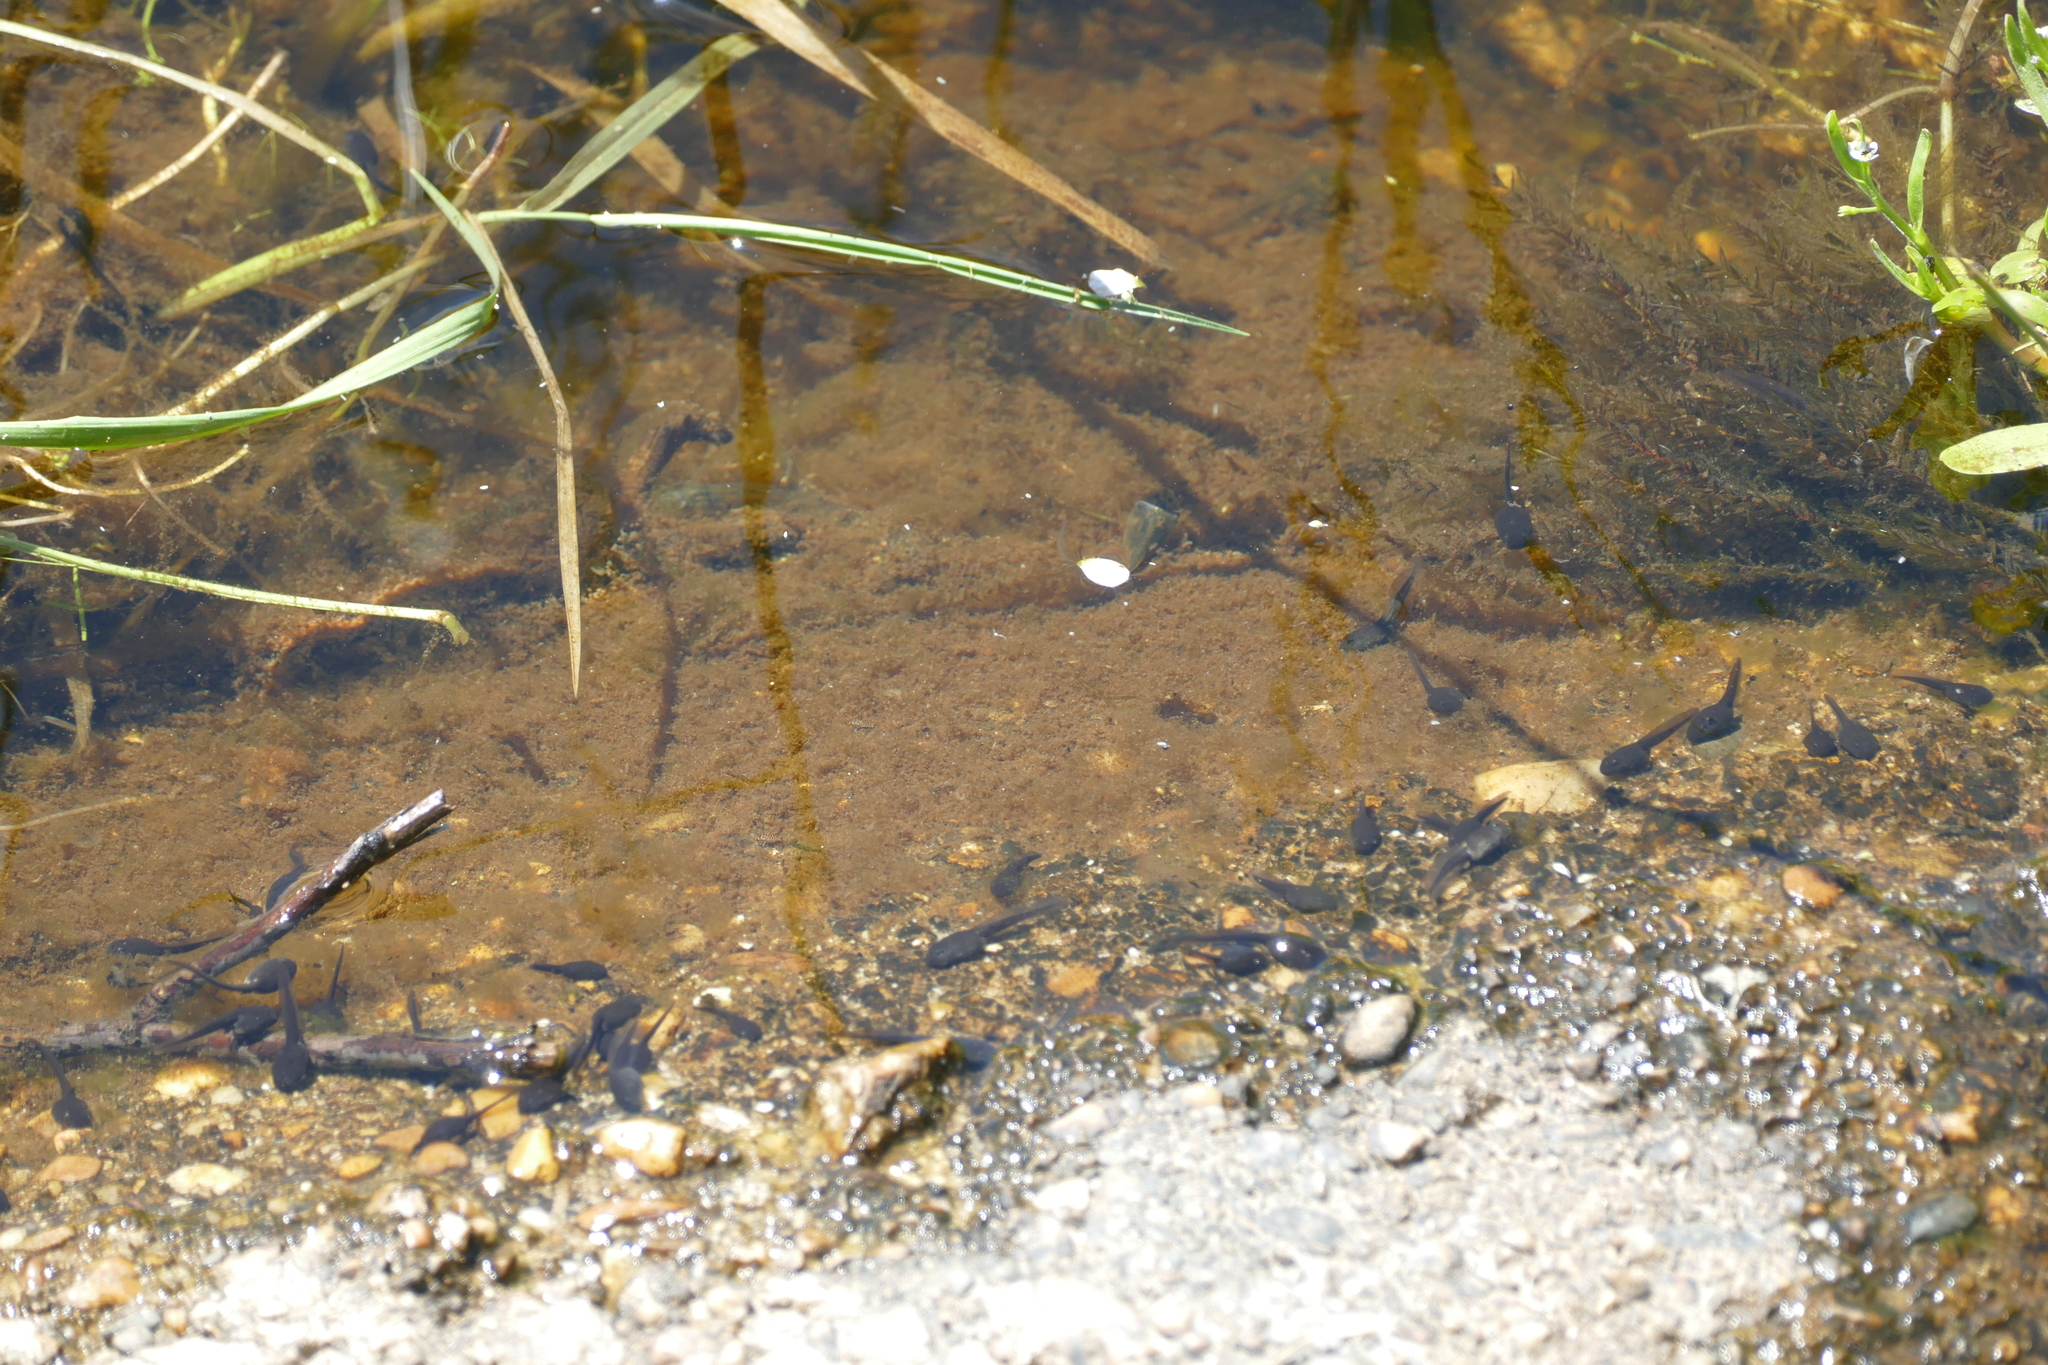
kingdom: Animalia
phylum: Chordata
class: Amphibia
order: Anura
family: Bufonidae
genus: Epidalea
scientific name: Epidalea calamita
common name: Natterjack toad
